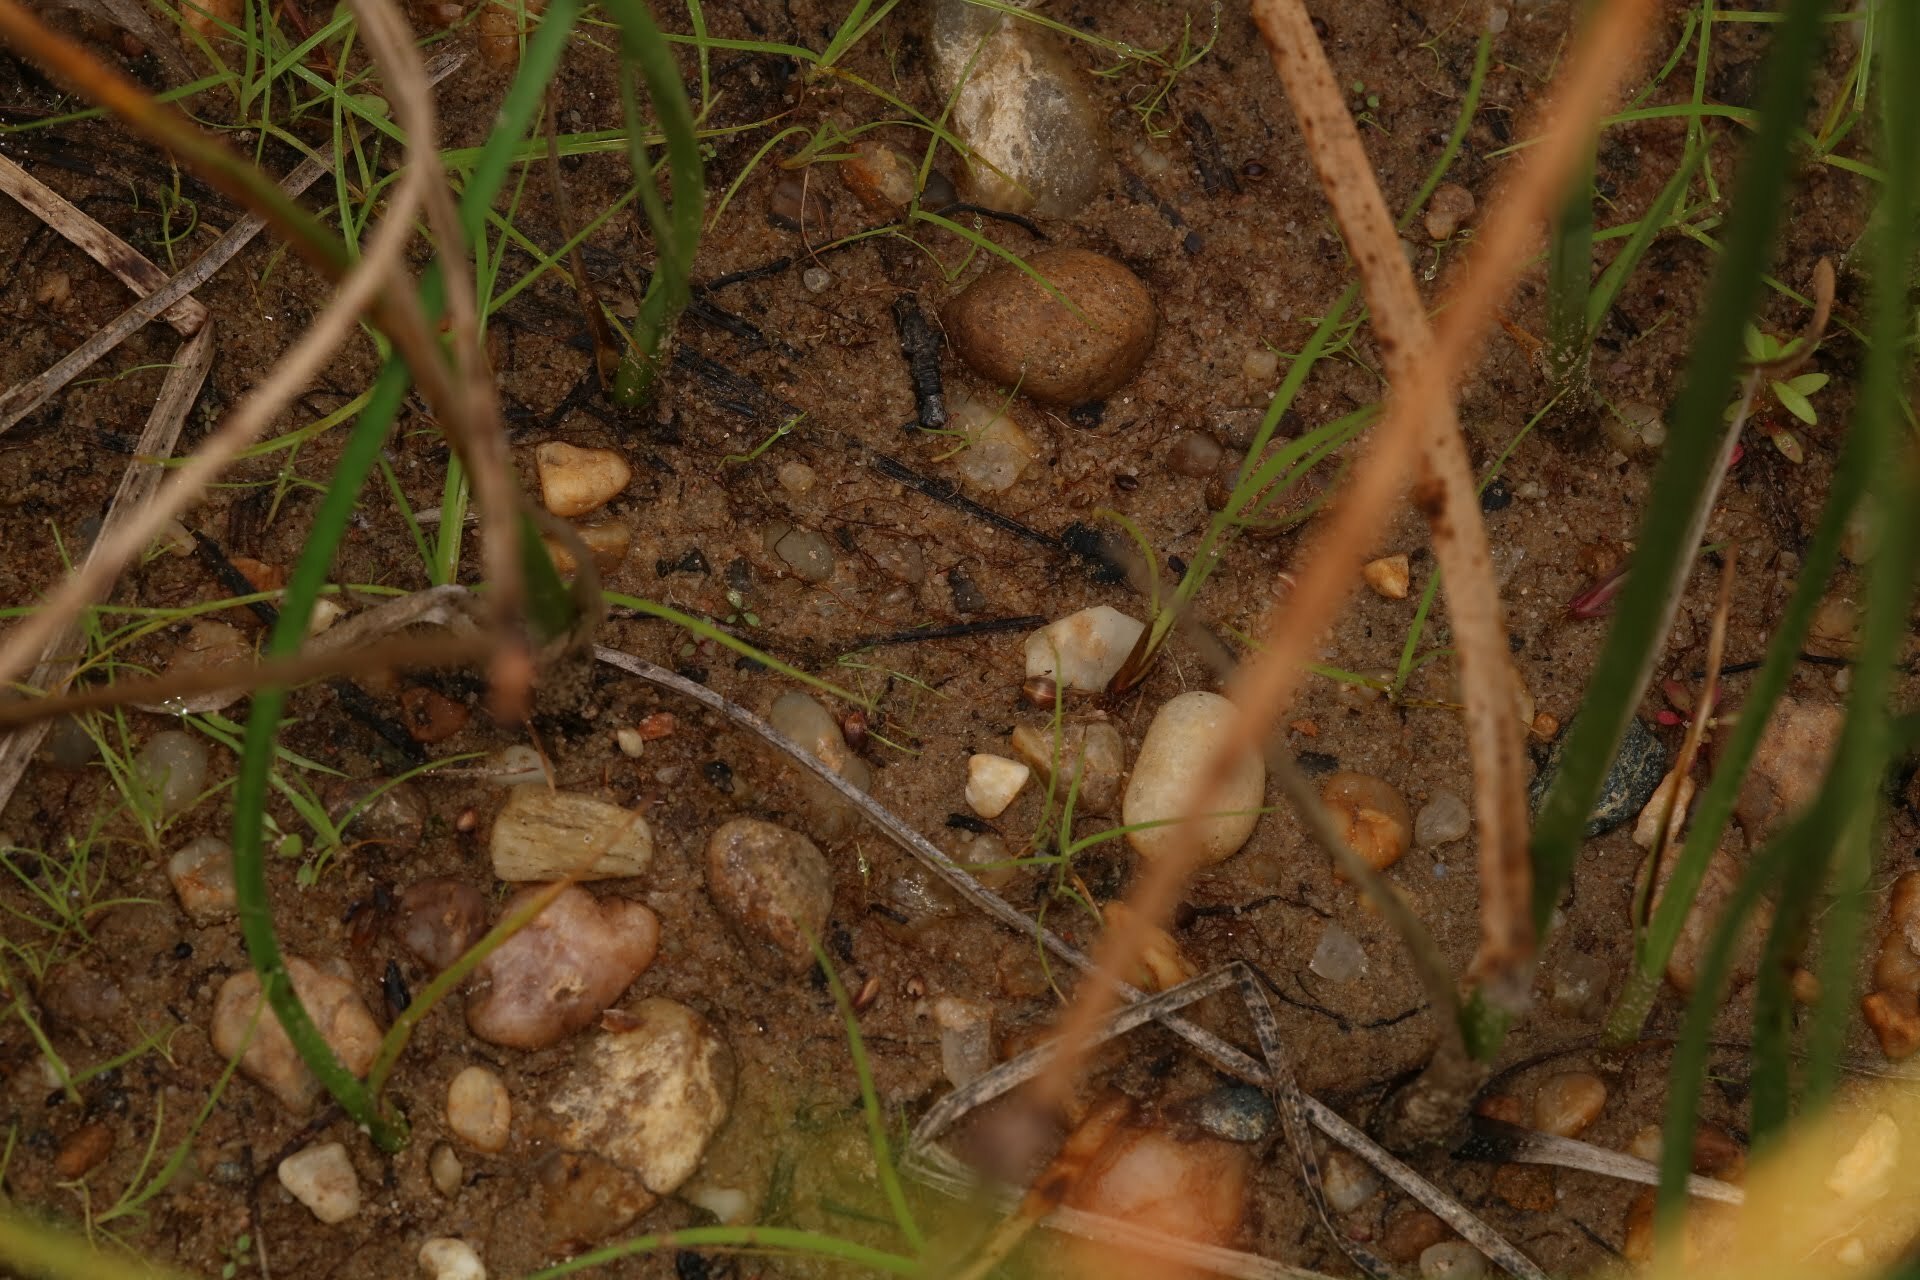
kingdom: Animalia
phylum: Arthropoda
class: Insecta
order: Hemiptera
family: Gelastocoridae
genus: Gelastocoris
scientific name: Gelastocoris oculatus
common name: Toad bug
